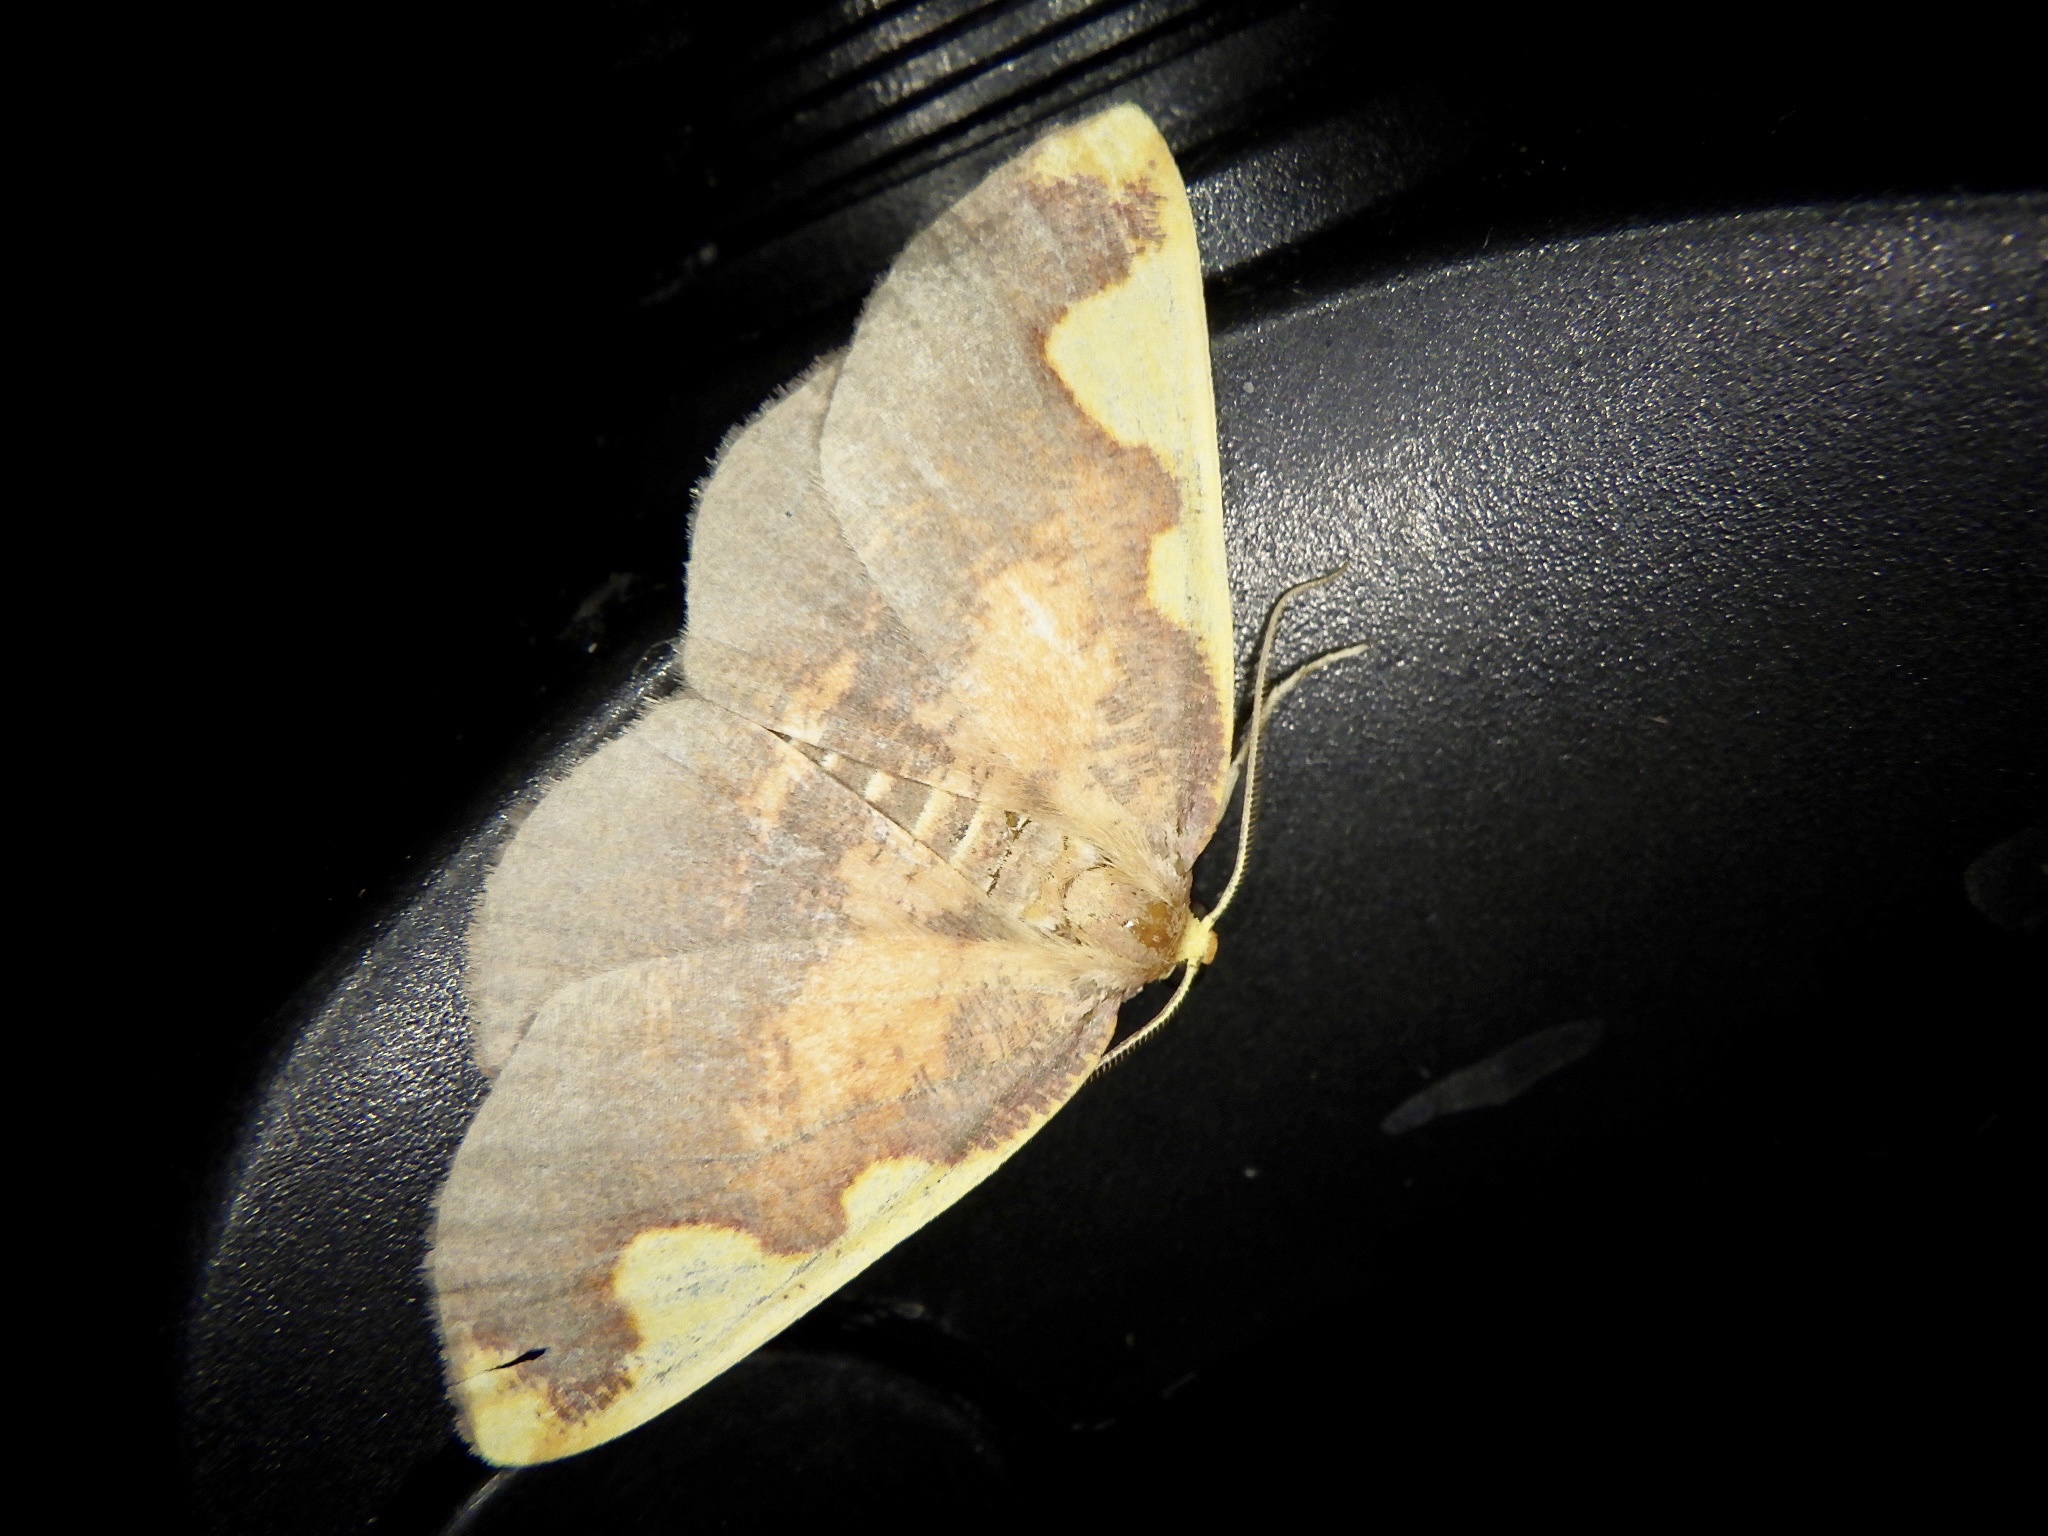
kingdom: Animalia
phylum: Arthropoda
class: Insecta
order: Lepidoptera
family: Geometridae
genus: Nothomiza
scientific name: Nothomiza formosa
